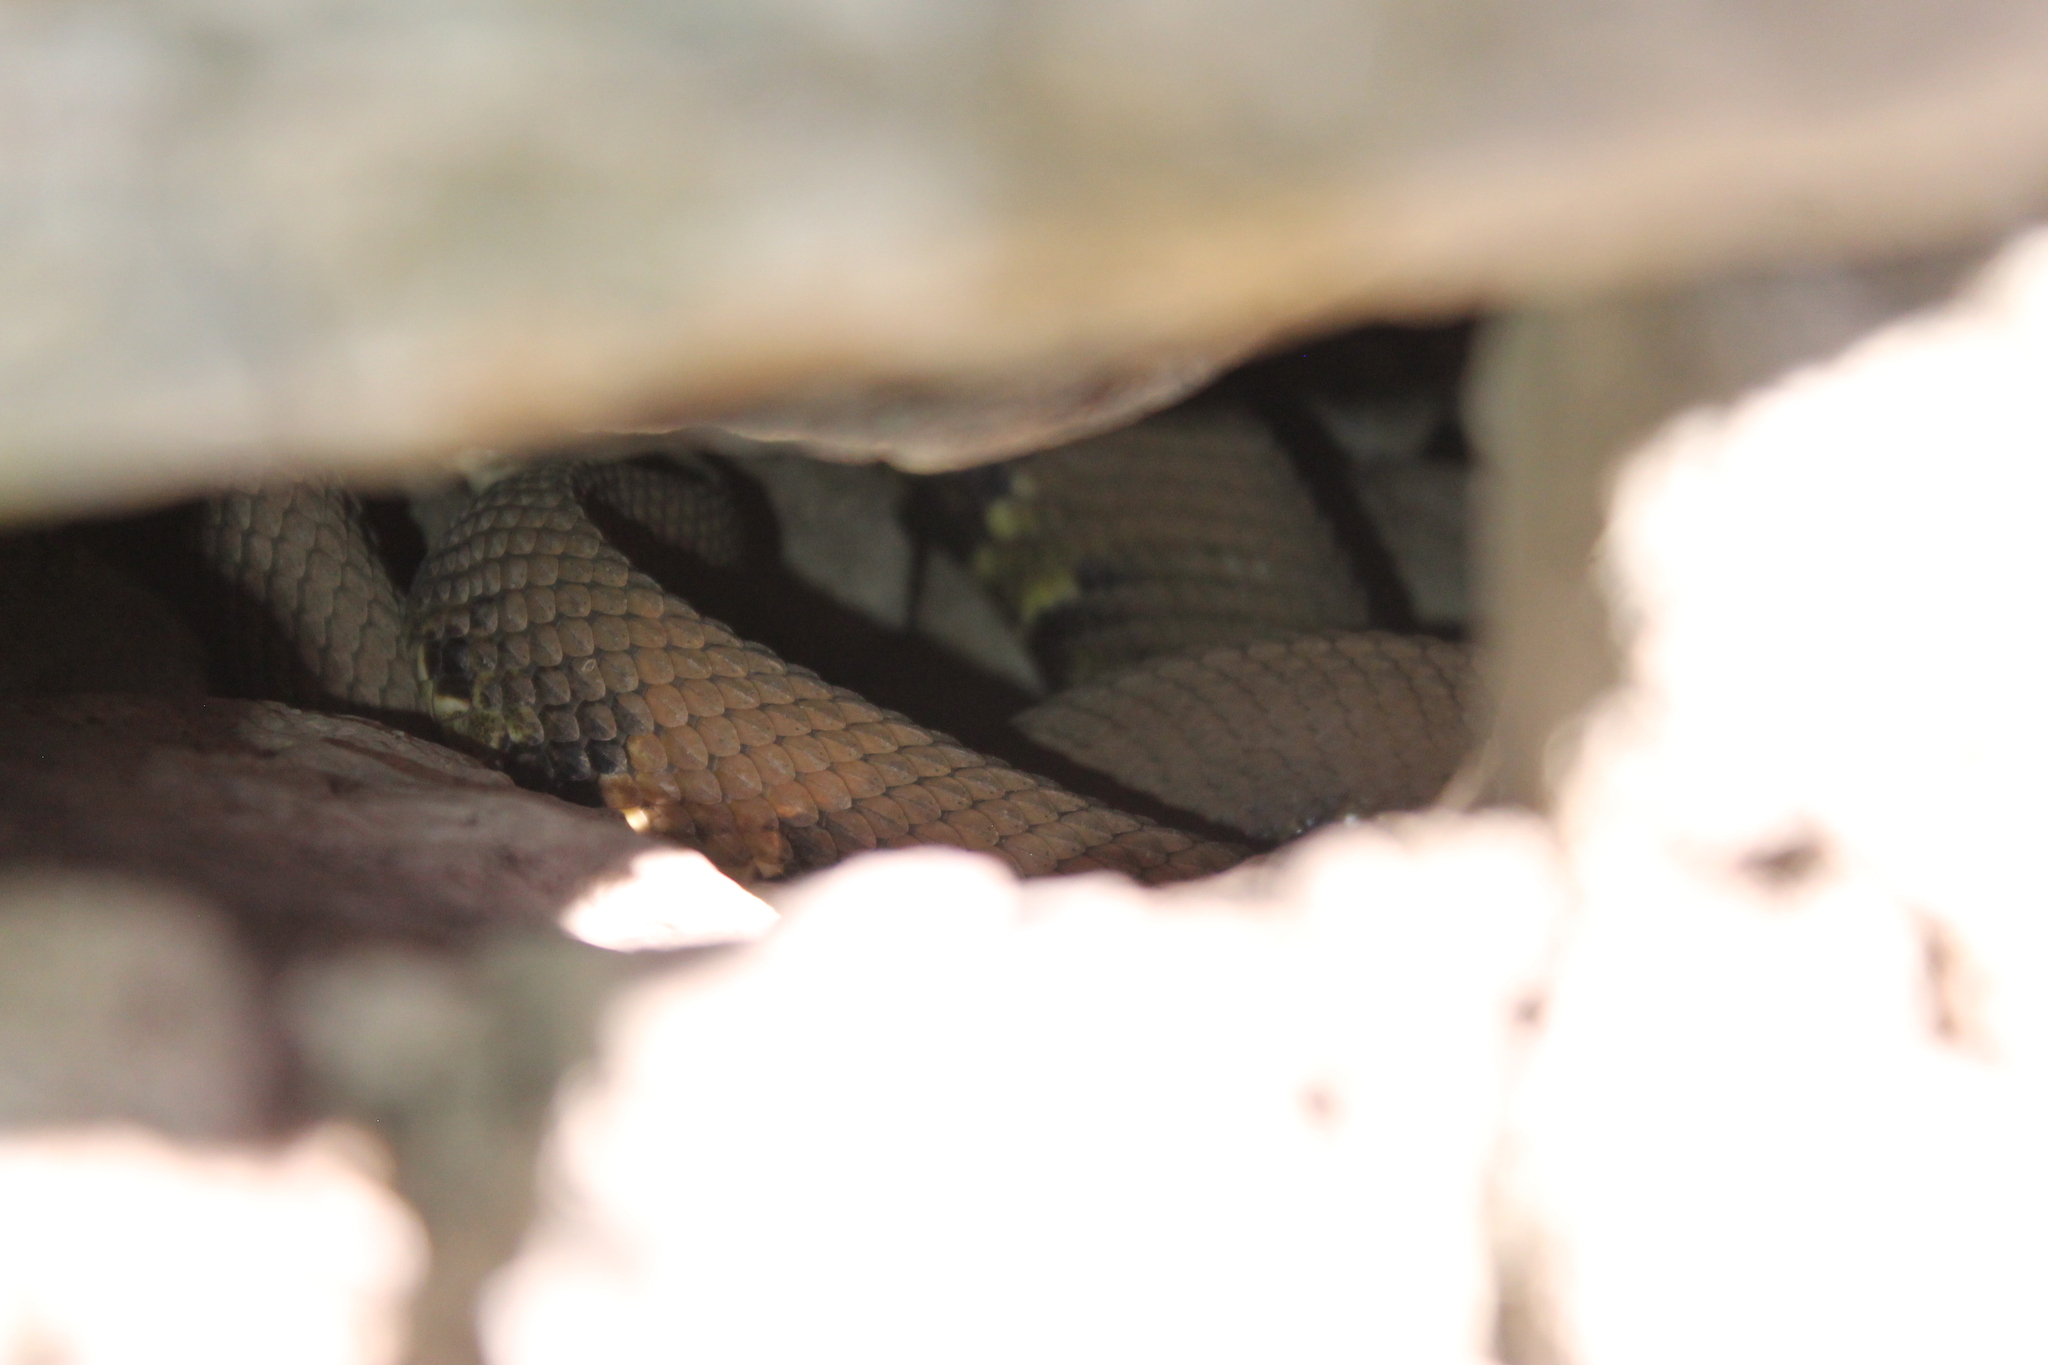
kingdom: Animalia
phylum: Chordata
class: Squamata
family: Viperidae
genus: Agkistrodon
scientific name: Agkistrodon piscivorus
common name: Cottonmouth
